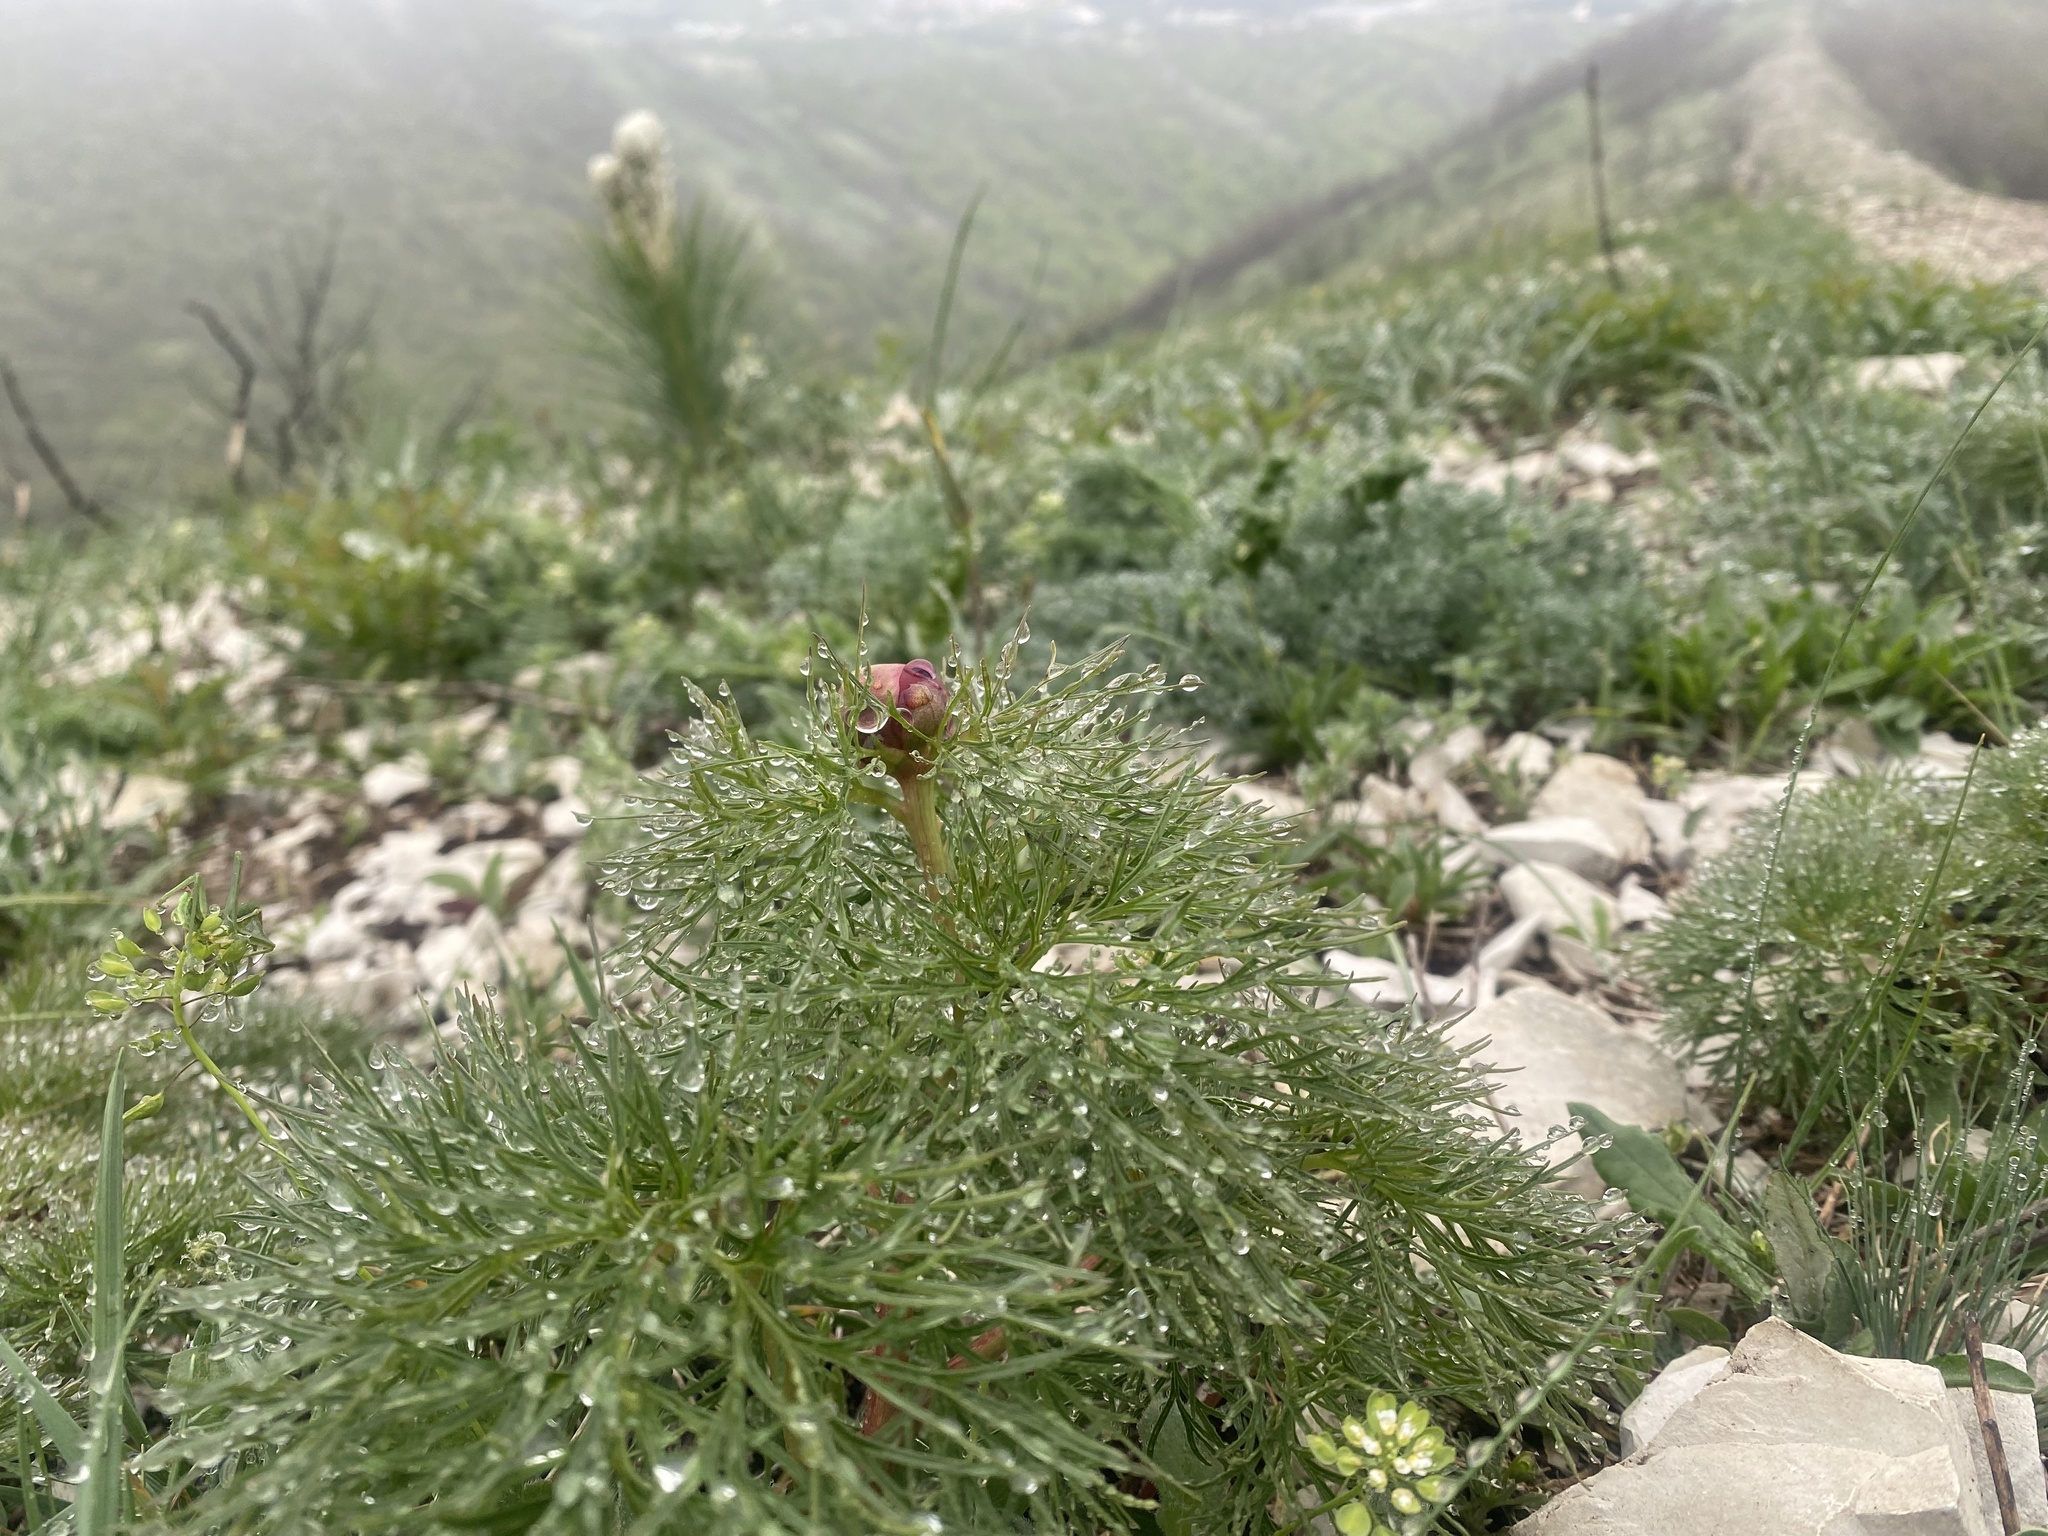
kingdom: Plantae
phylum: Tracheophyta
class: Magnoliopsida
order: Saxifragales
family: Paeoniaceae
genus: Paeonia
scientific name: Paeonia tenuifolia
